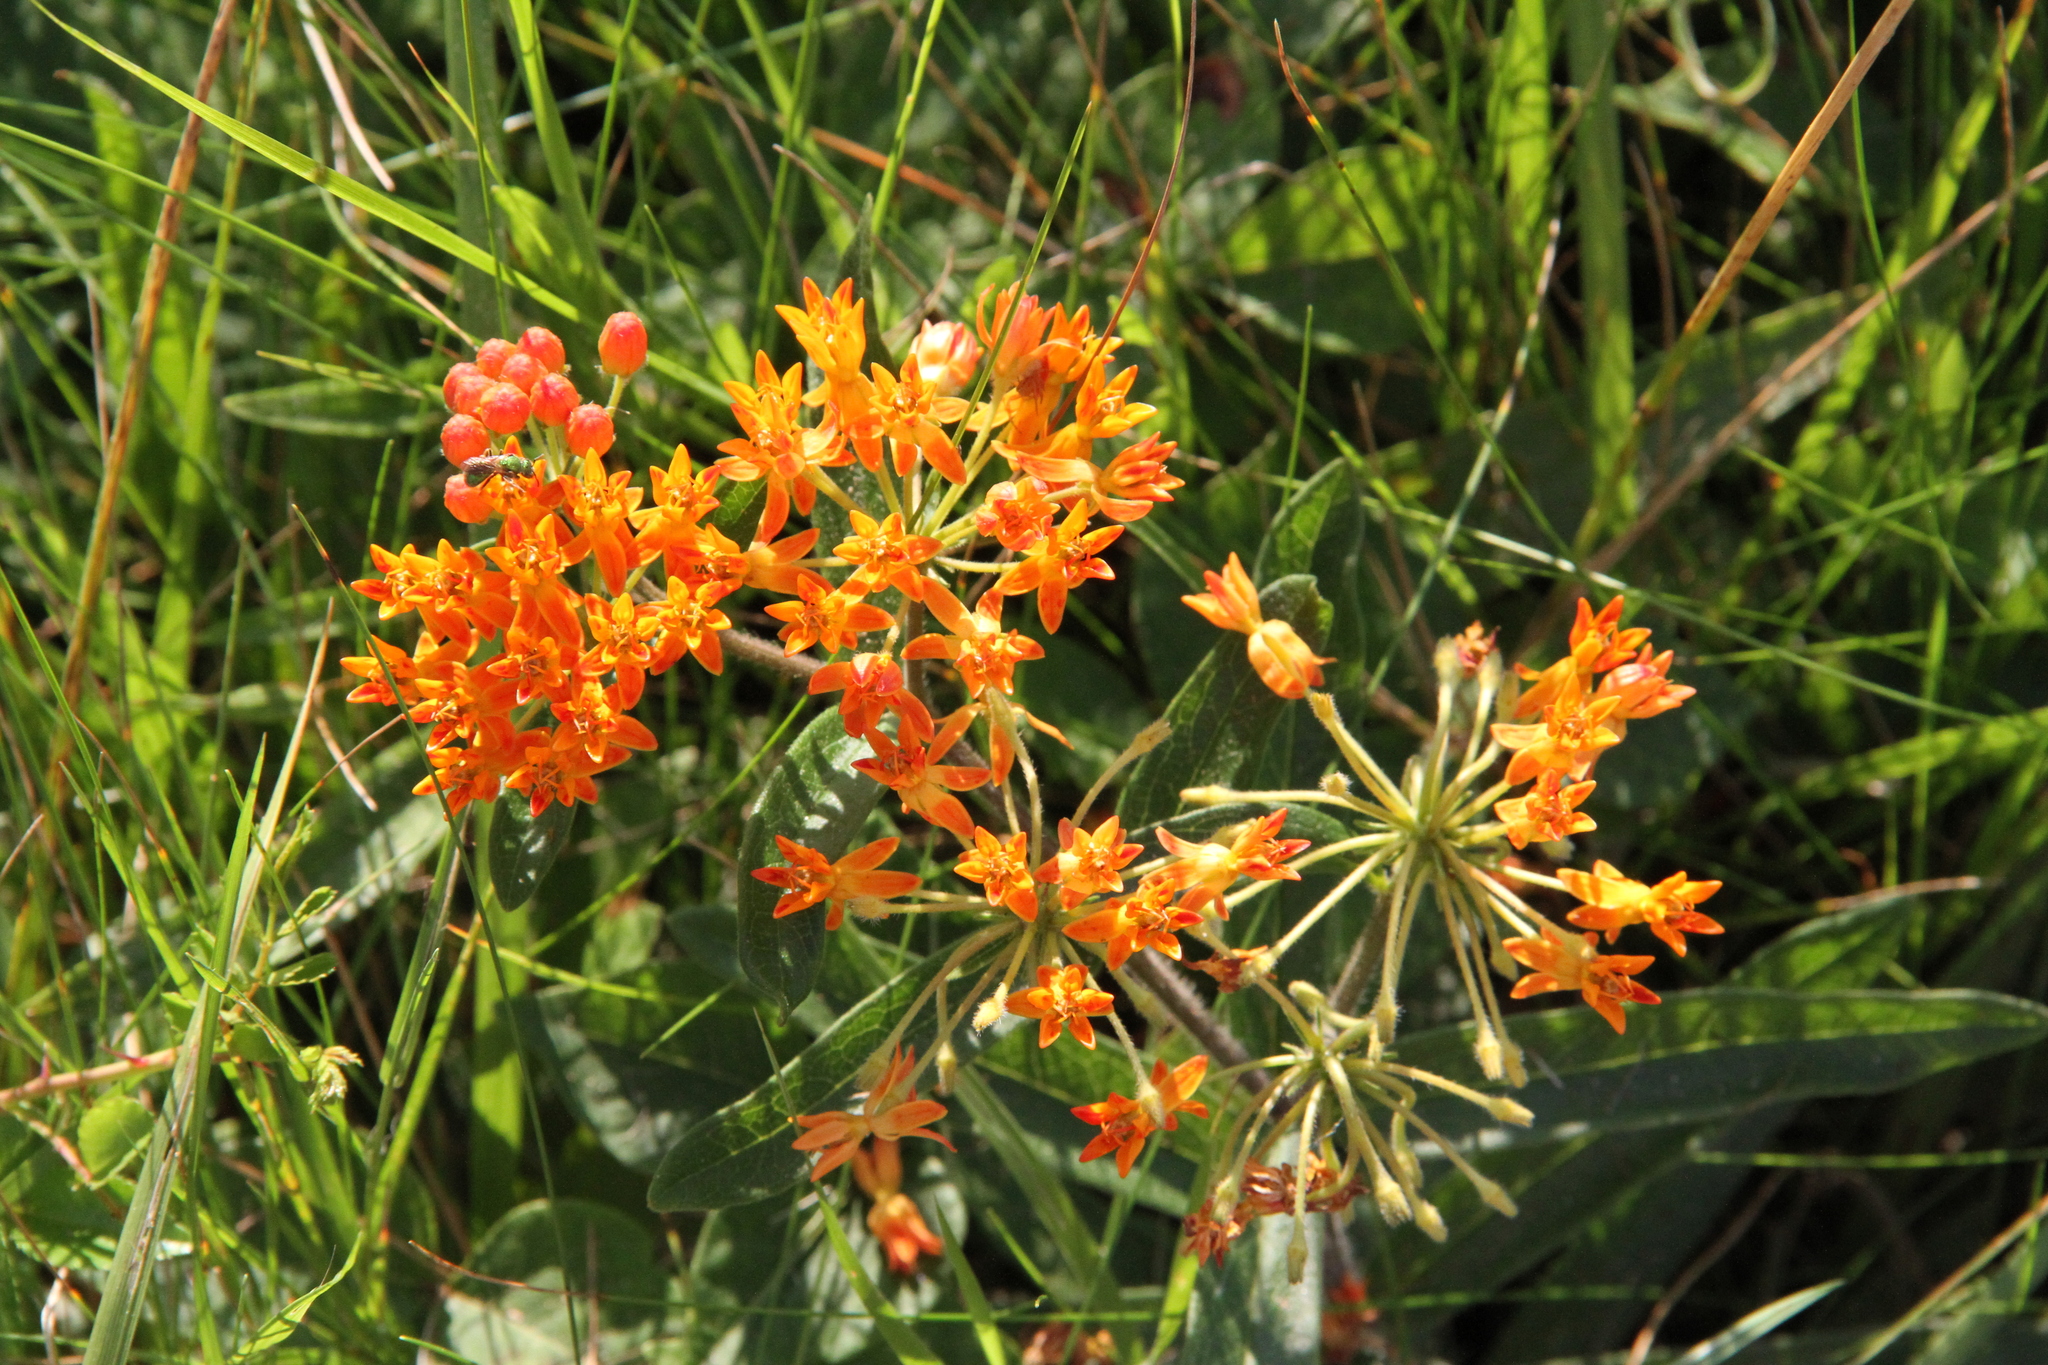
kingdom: Plantae
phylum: Tracheophyta
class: Magnoliopsida
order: Gentianales
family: Apocynaceae
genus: Asclepias
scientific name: Asclepias tuberosa
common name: Butterfly milkweed
